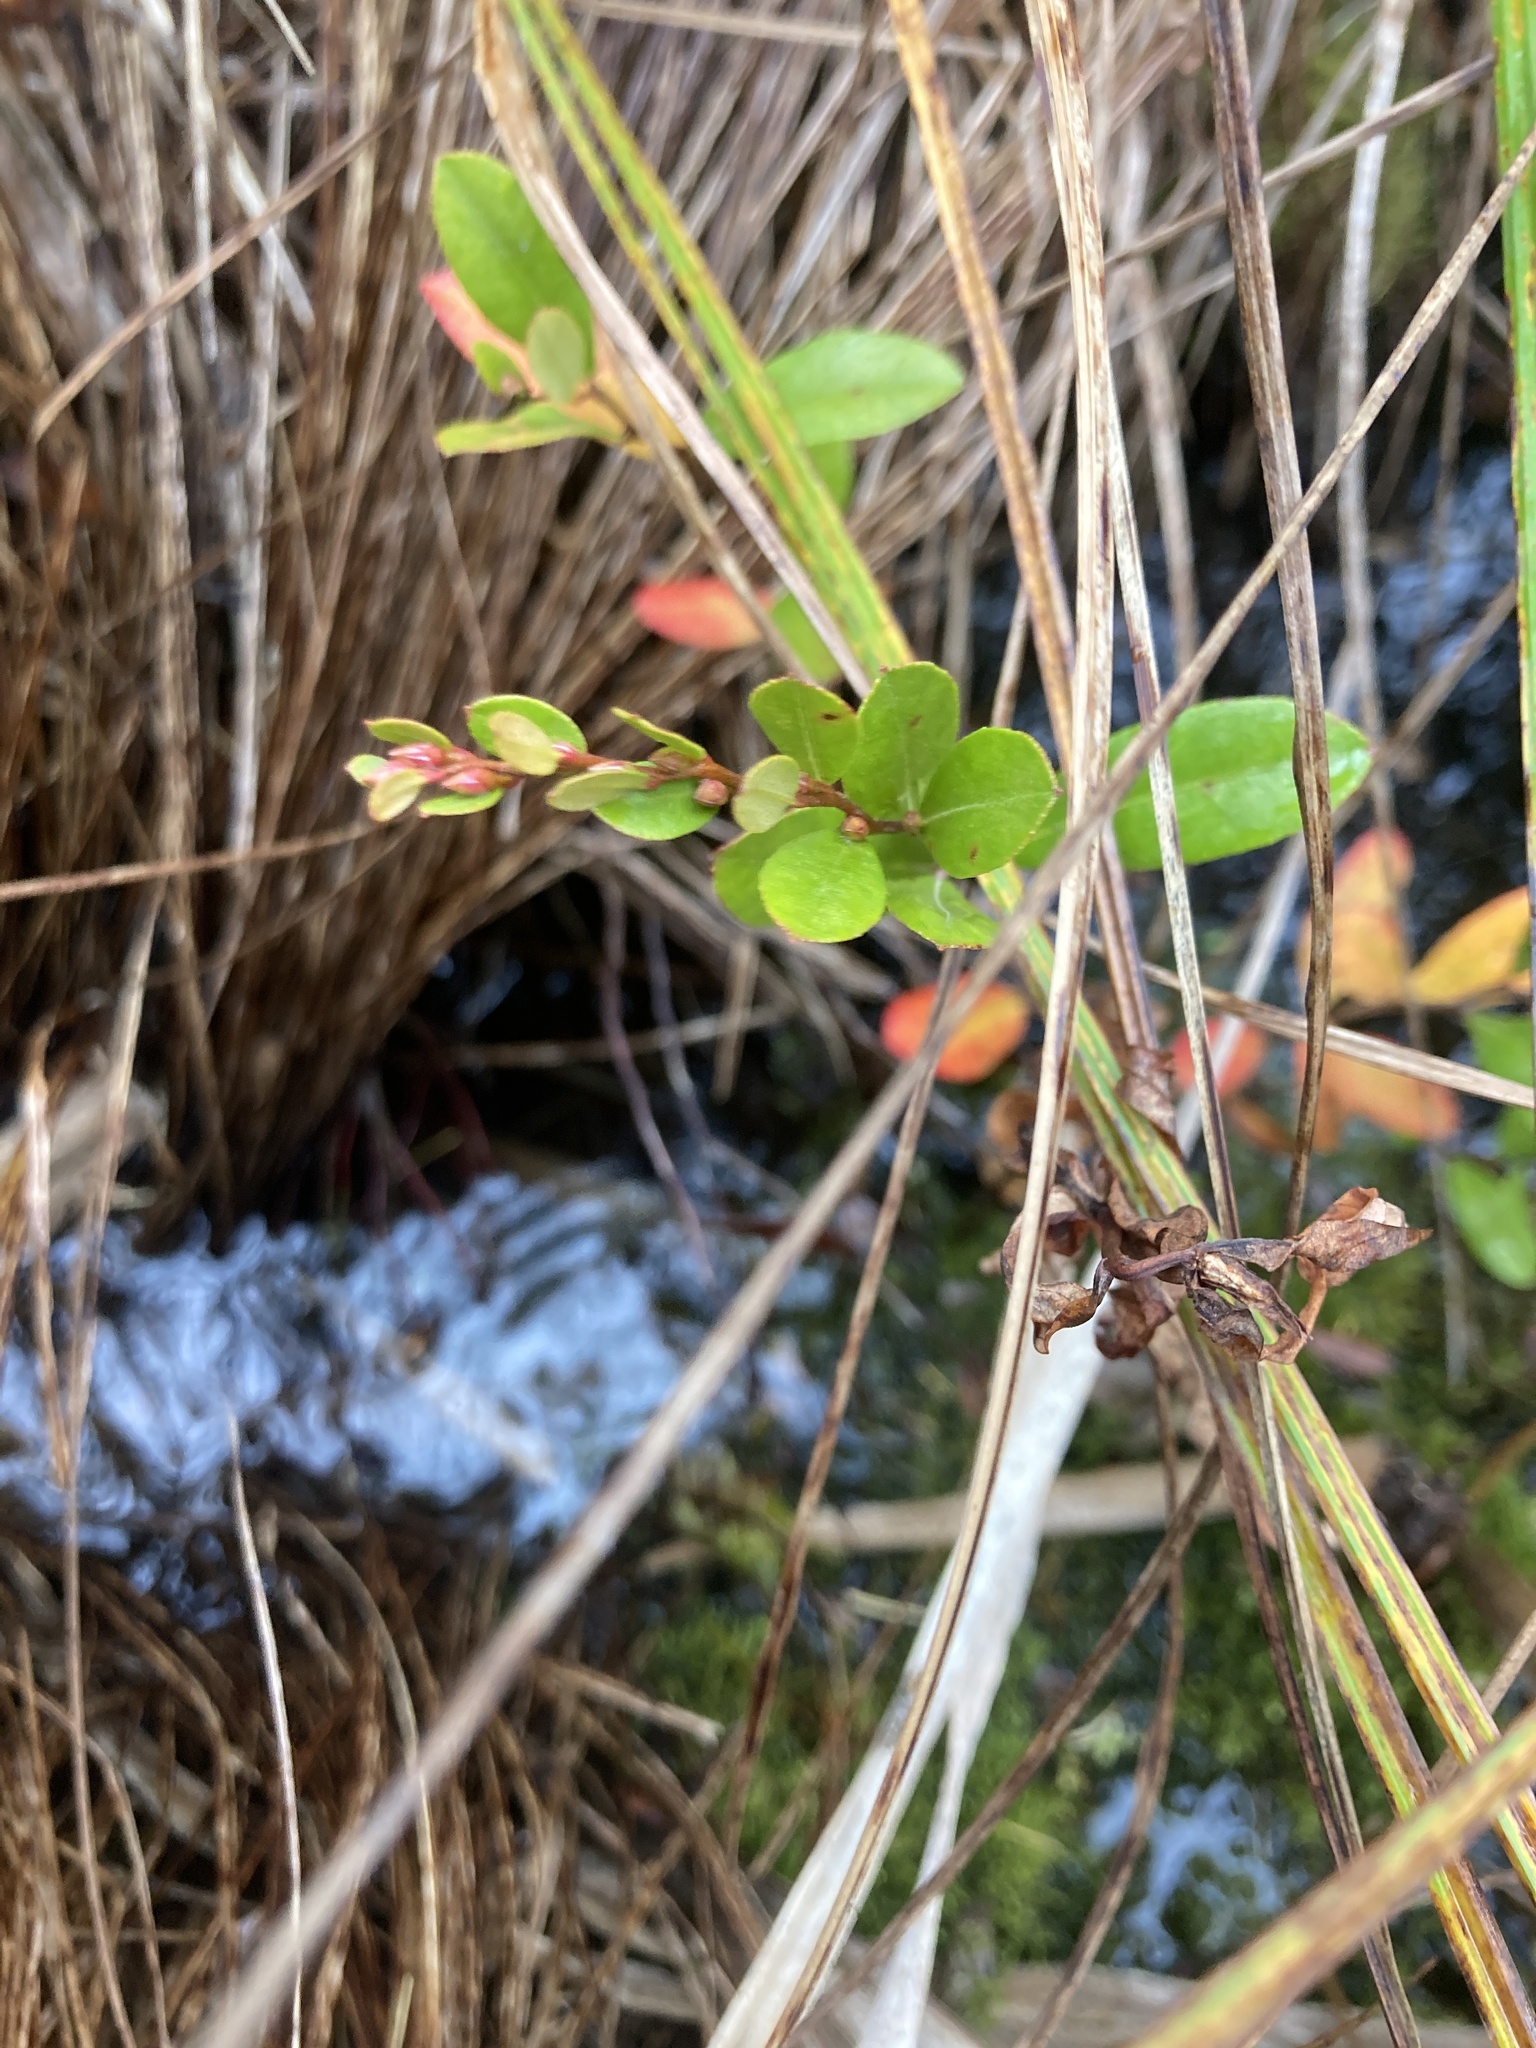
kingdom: Plantae
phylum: Tracheophyta
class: Magnoliopsida
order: Ericales
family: Ericaceae
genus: Chamaedaphne
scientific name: Chamaedaphne calyculata
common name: Leatherleaf
